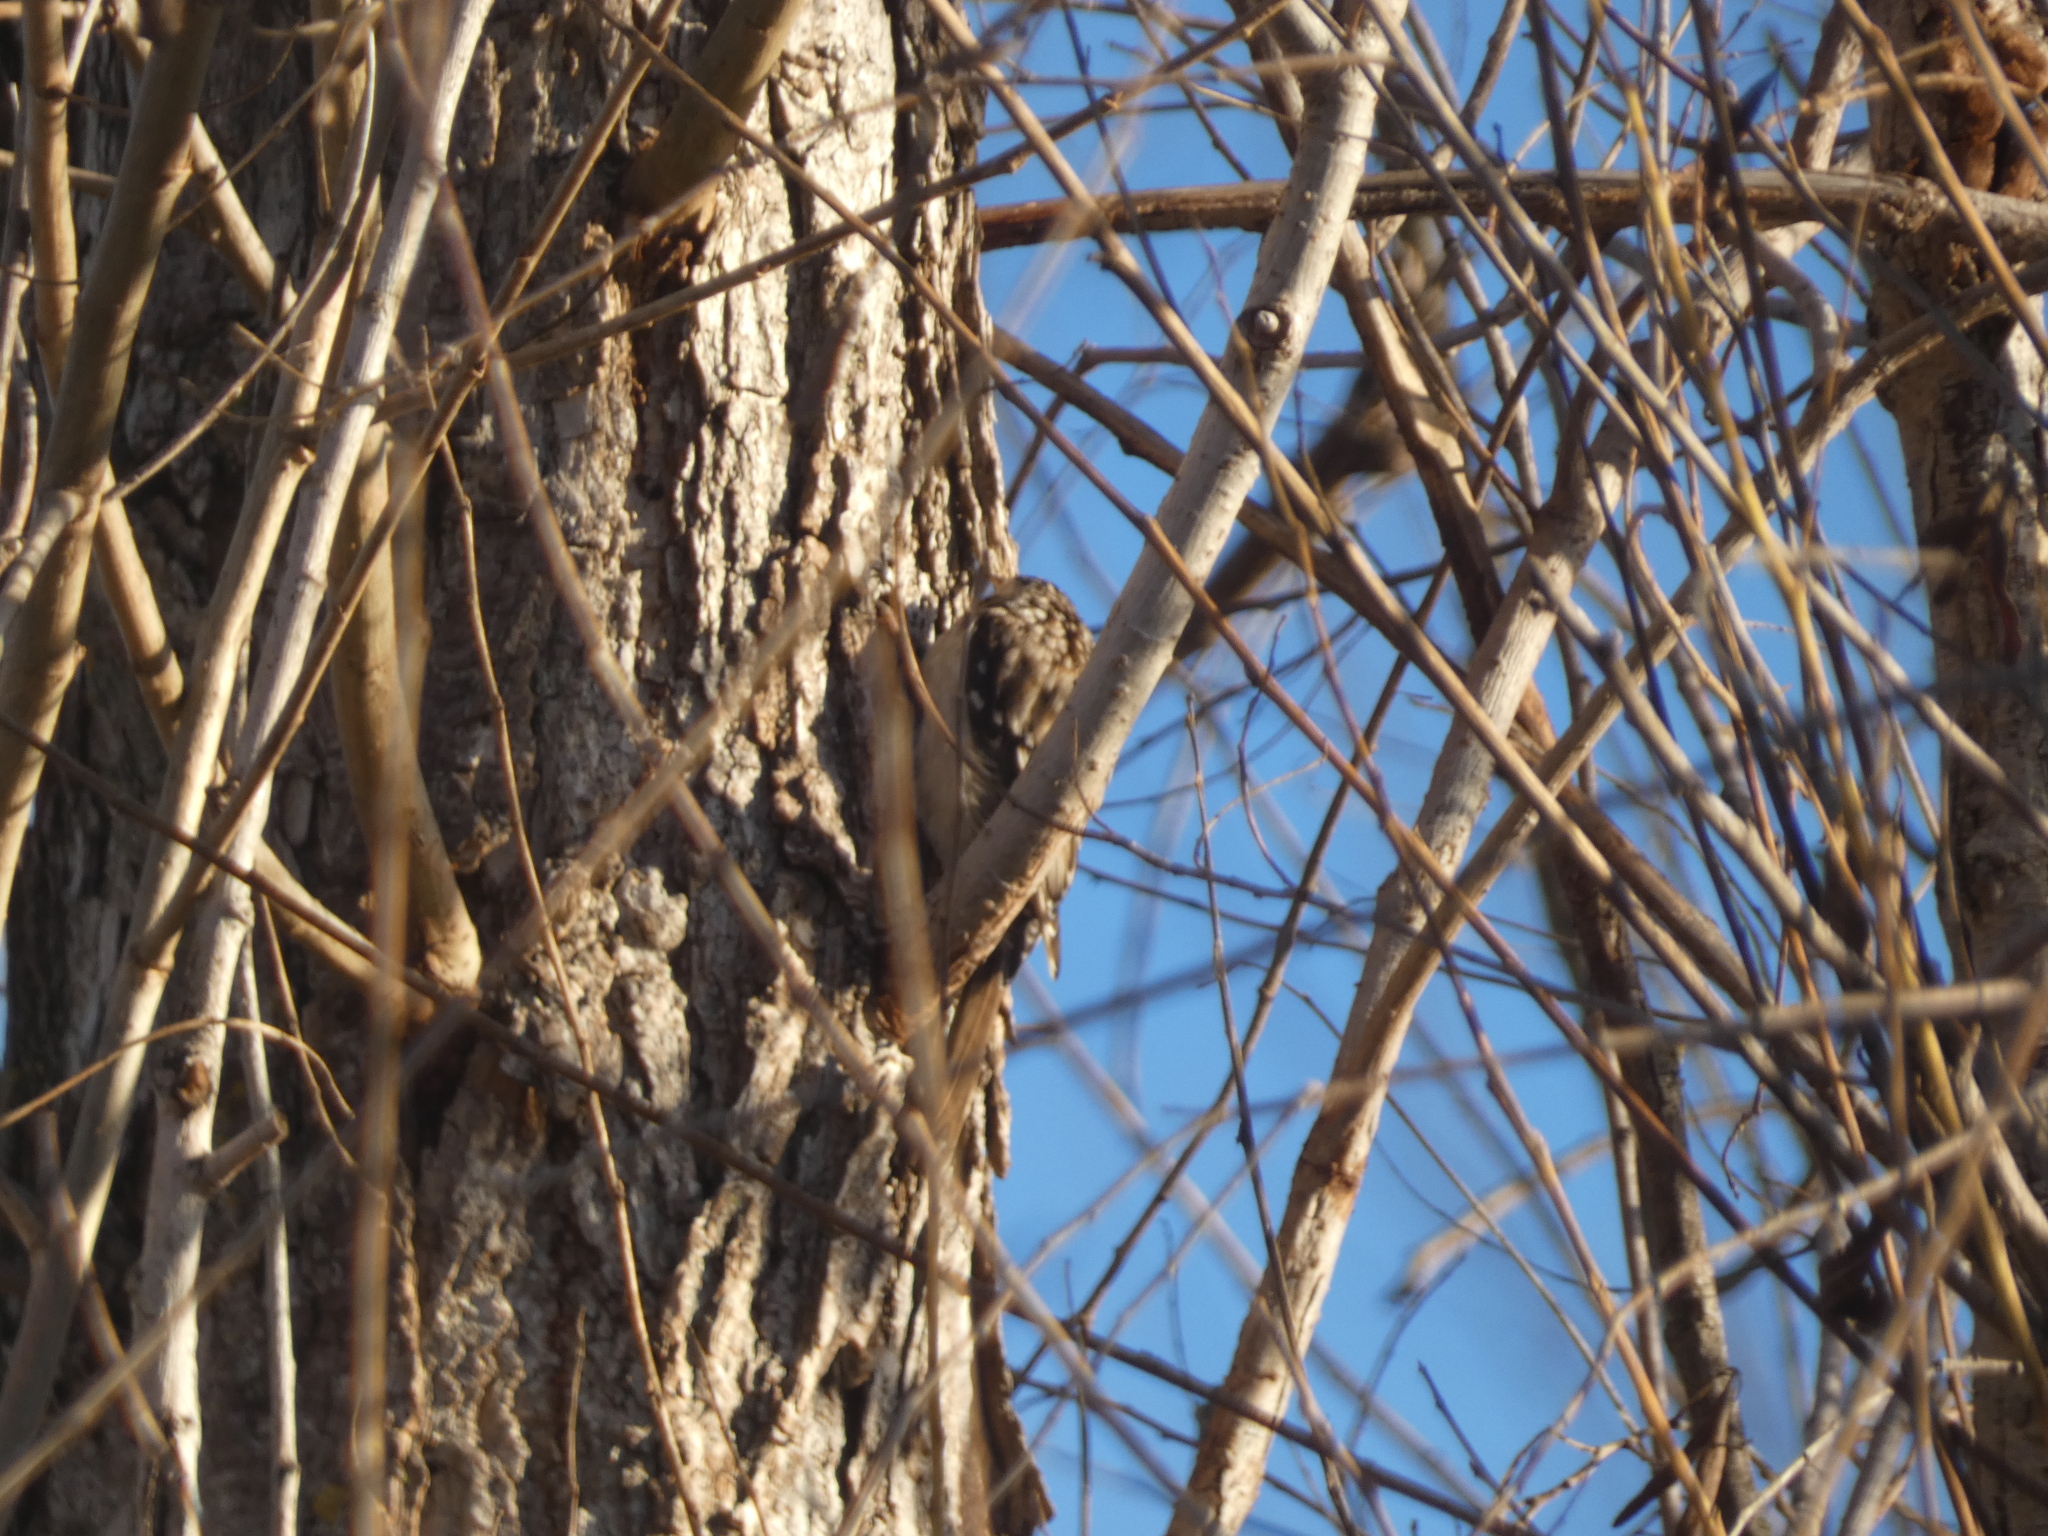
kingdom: Animalia
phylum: Chordata
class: Aves
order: Passeriformes
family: Certhiidae
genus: Certhia
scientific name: Certhia americana
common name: Brown creeper
